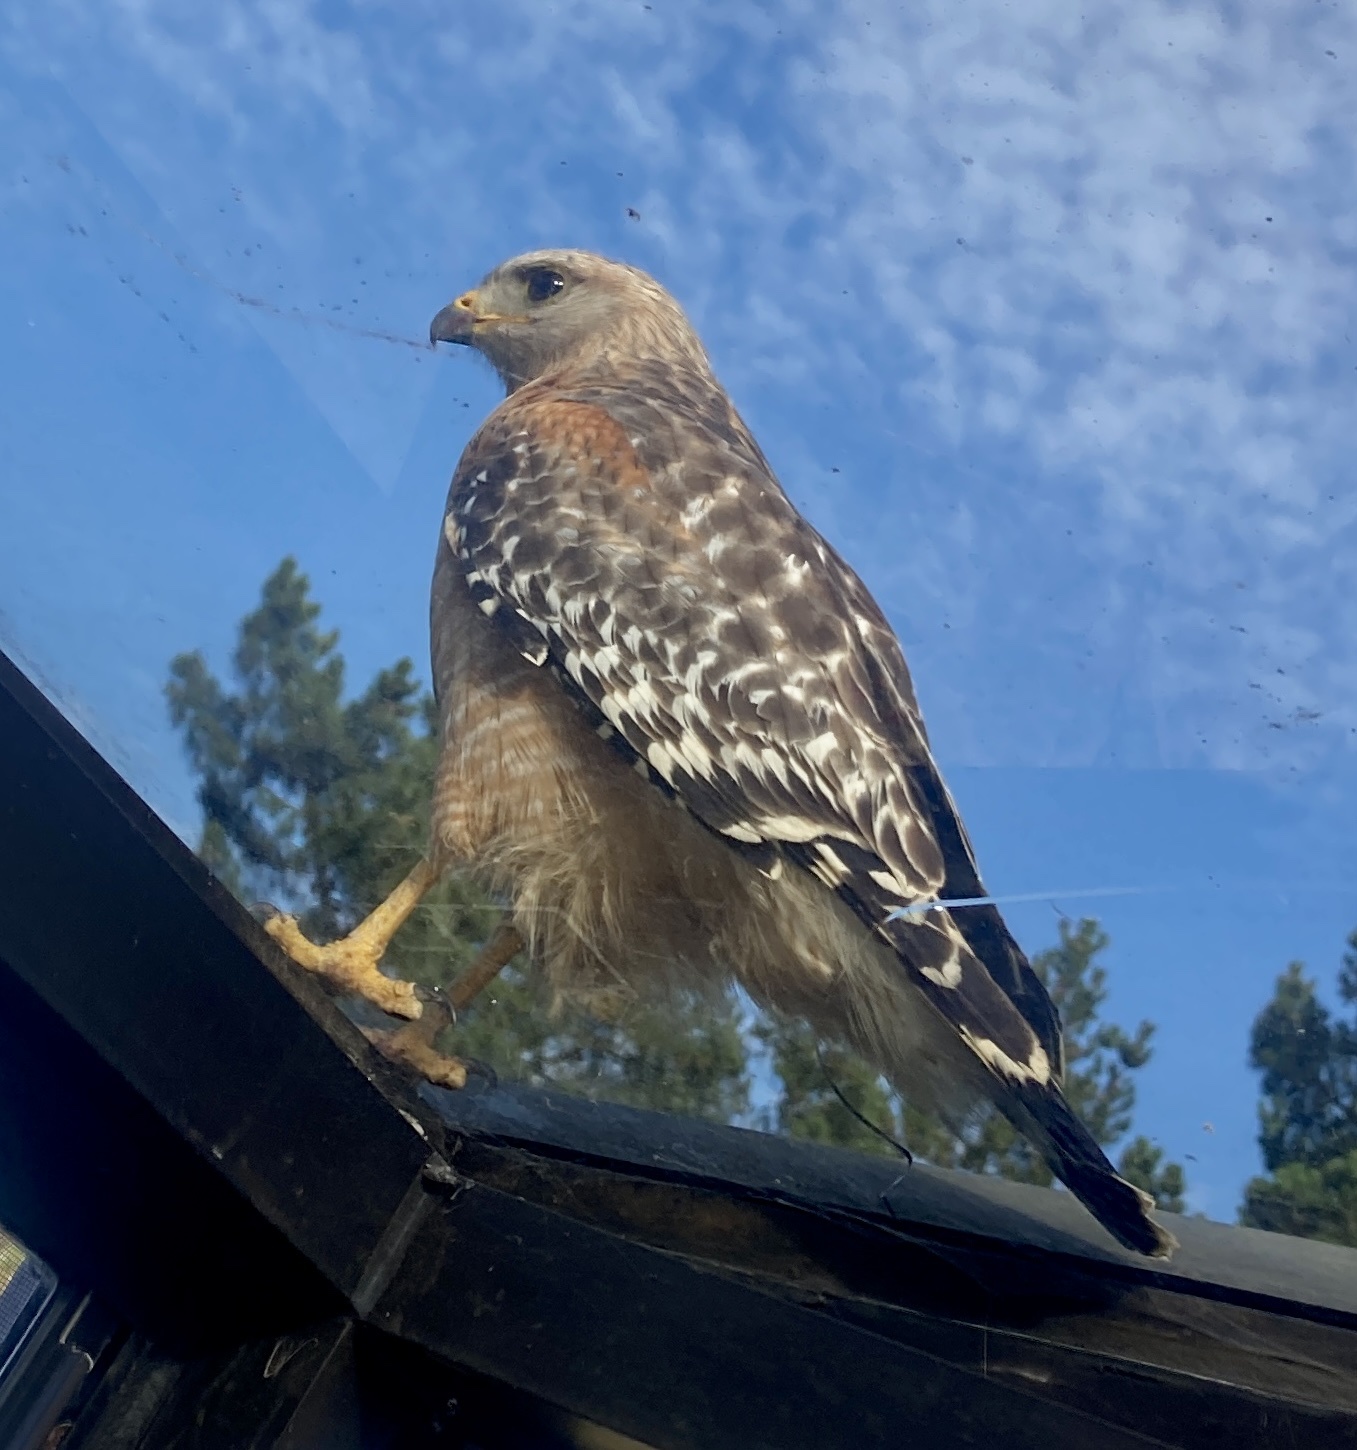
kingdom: Animalia
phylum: Chordata
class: Aves
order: Accipitriformes
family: Accipitridae
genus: Buteo
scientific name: Buteo lineatus
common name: Red-shouldered hawk
